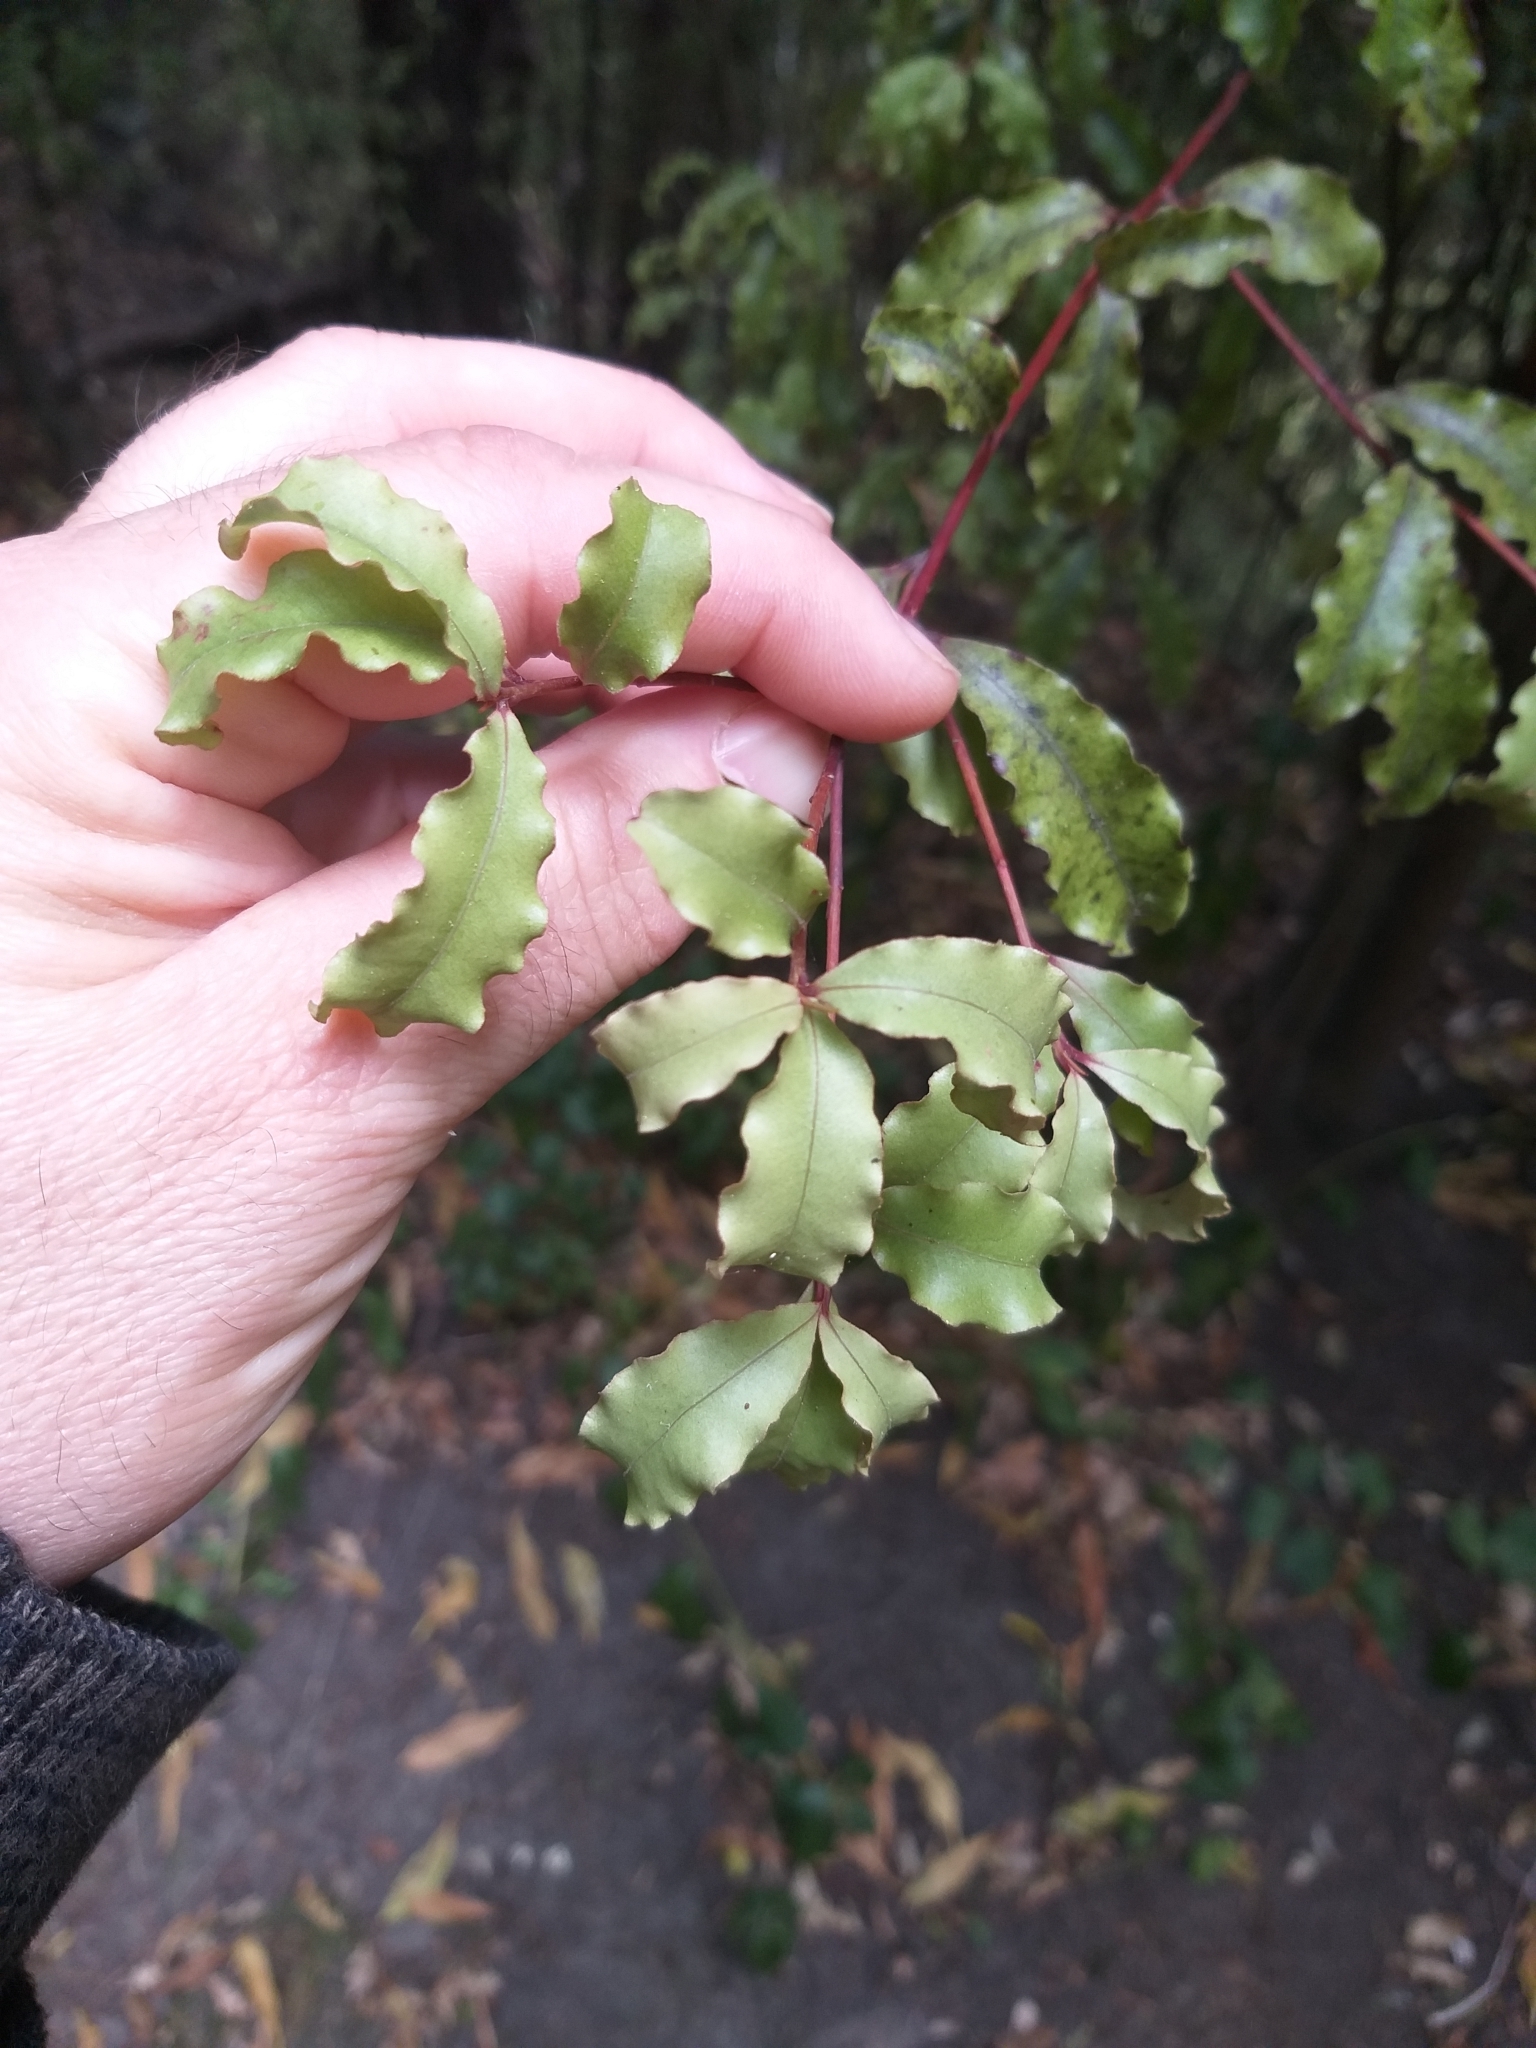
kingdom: Plantae
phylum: Tracheophyta
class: Magnoliopsida
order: Ericales
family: Primulaceae
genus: Myrsine
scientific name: Myrsine australis
